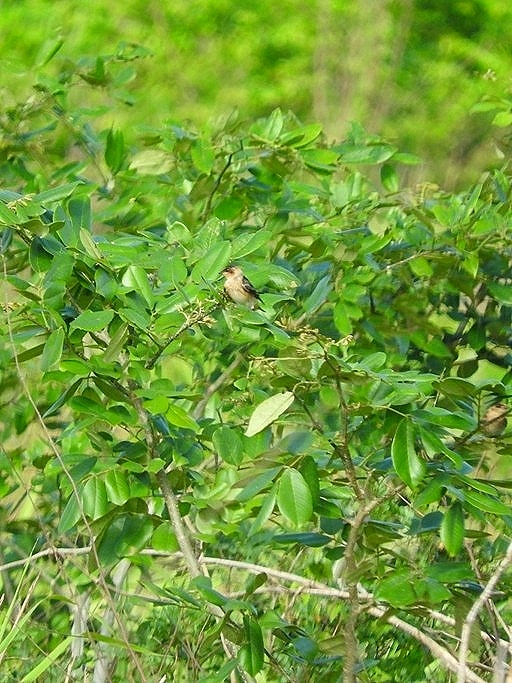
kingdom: Animalia
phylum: Chordata
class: Aves
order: Passeriformes
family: Hirundinidae
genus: Petrochelidon
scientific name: Petrochelidon fulva
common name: Cave swallow
